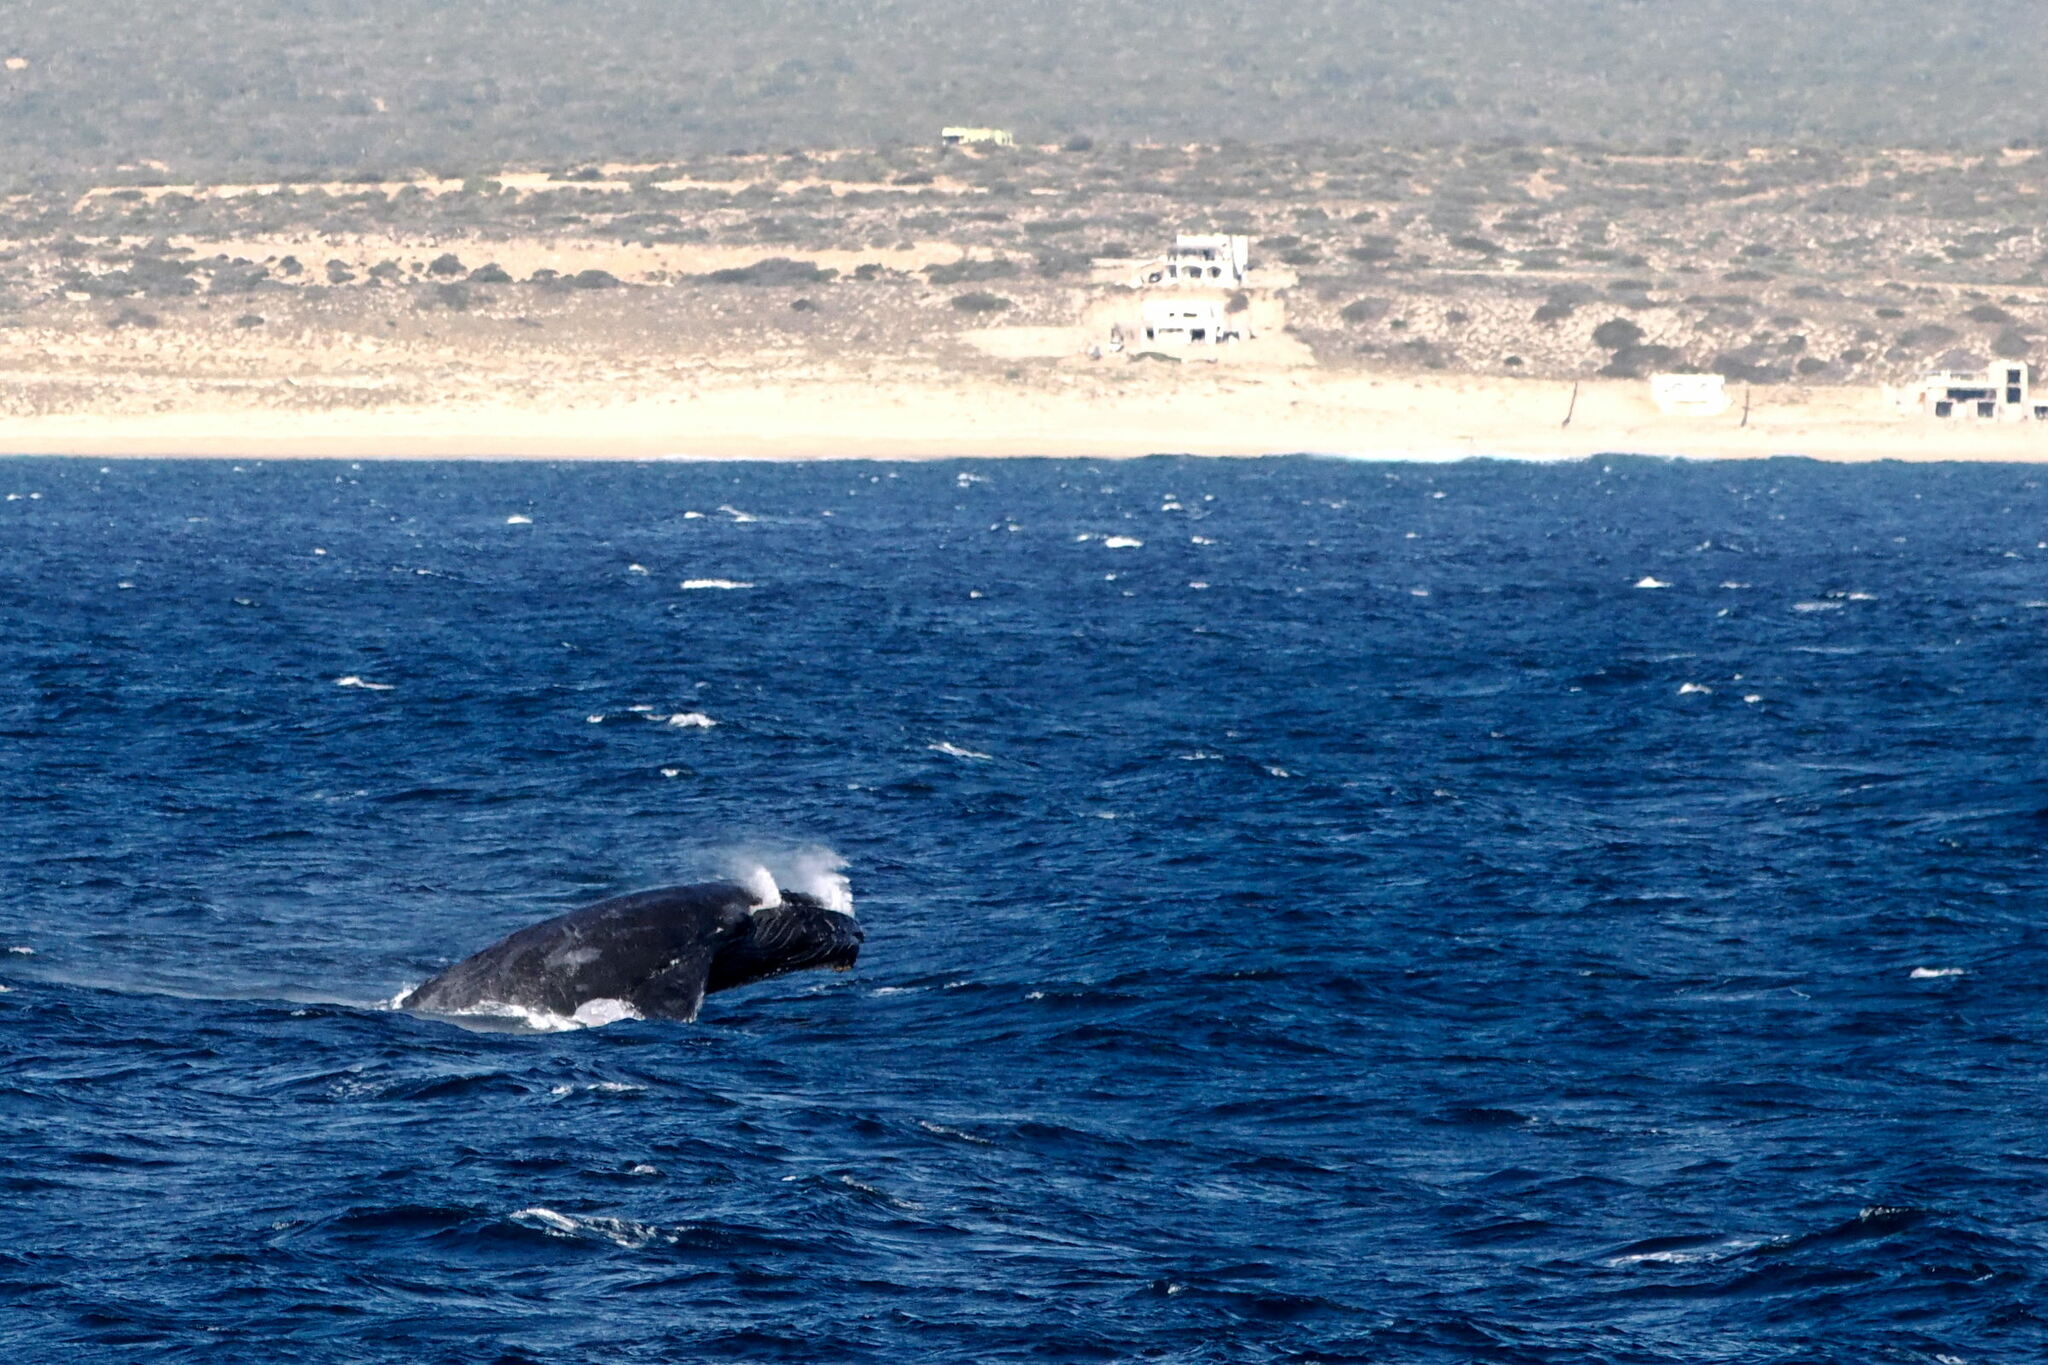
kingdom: Animalia
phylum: Chordata
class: Mammalia
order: Cetacea
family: Balaenopteridae
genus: Megaptera
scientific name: Megaptera novaeangliae
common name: Humpback whale
